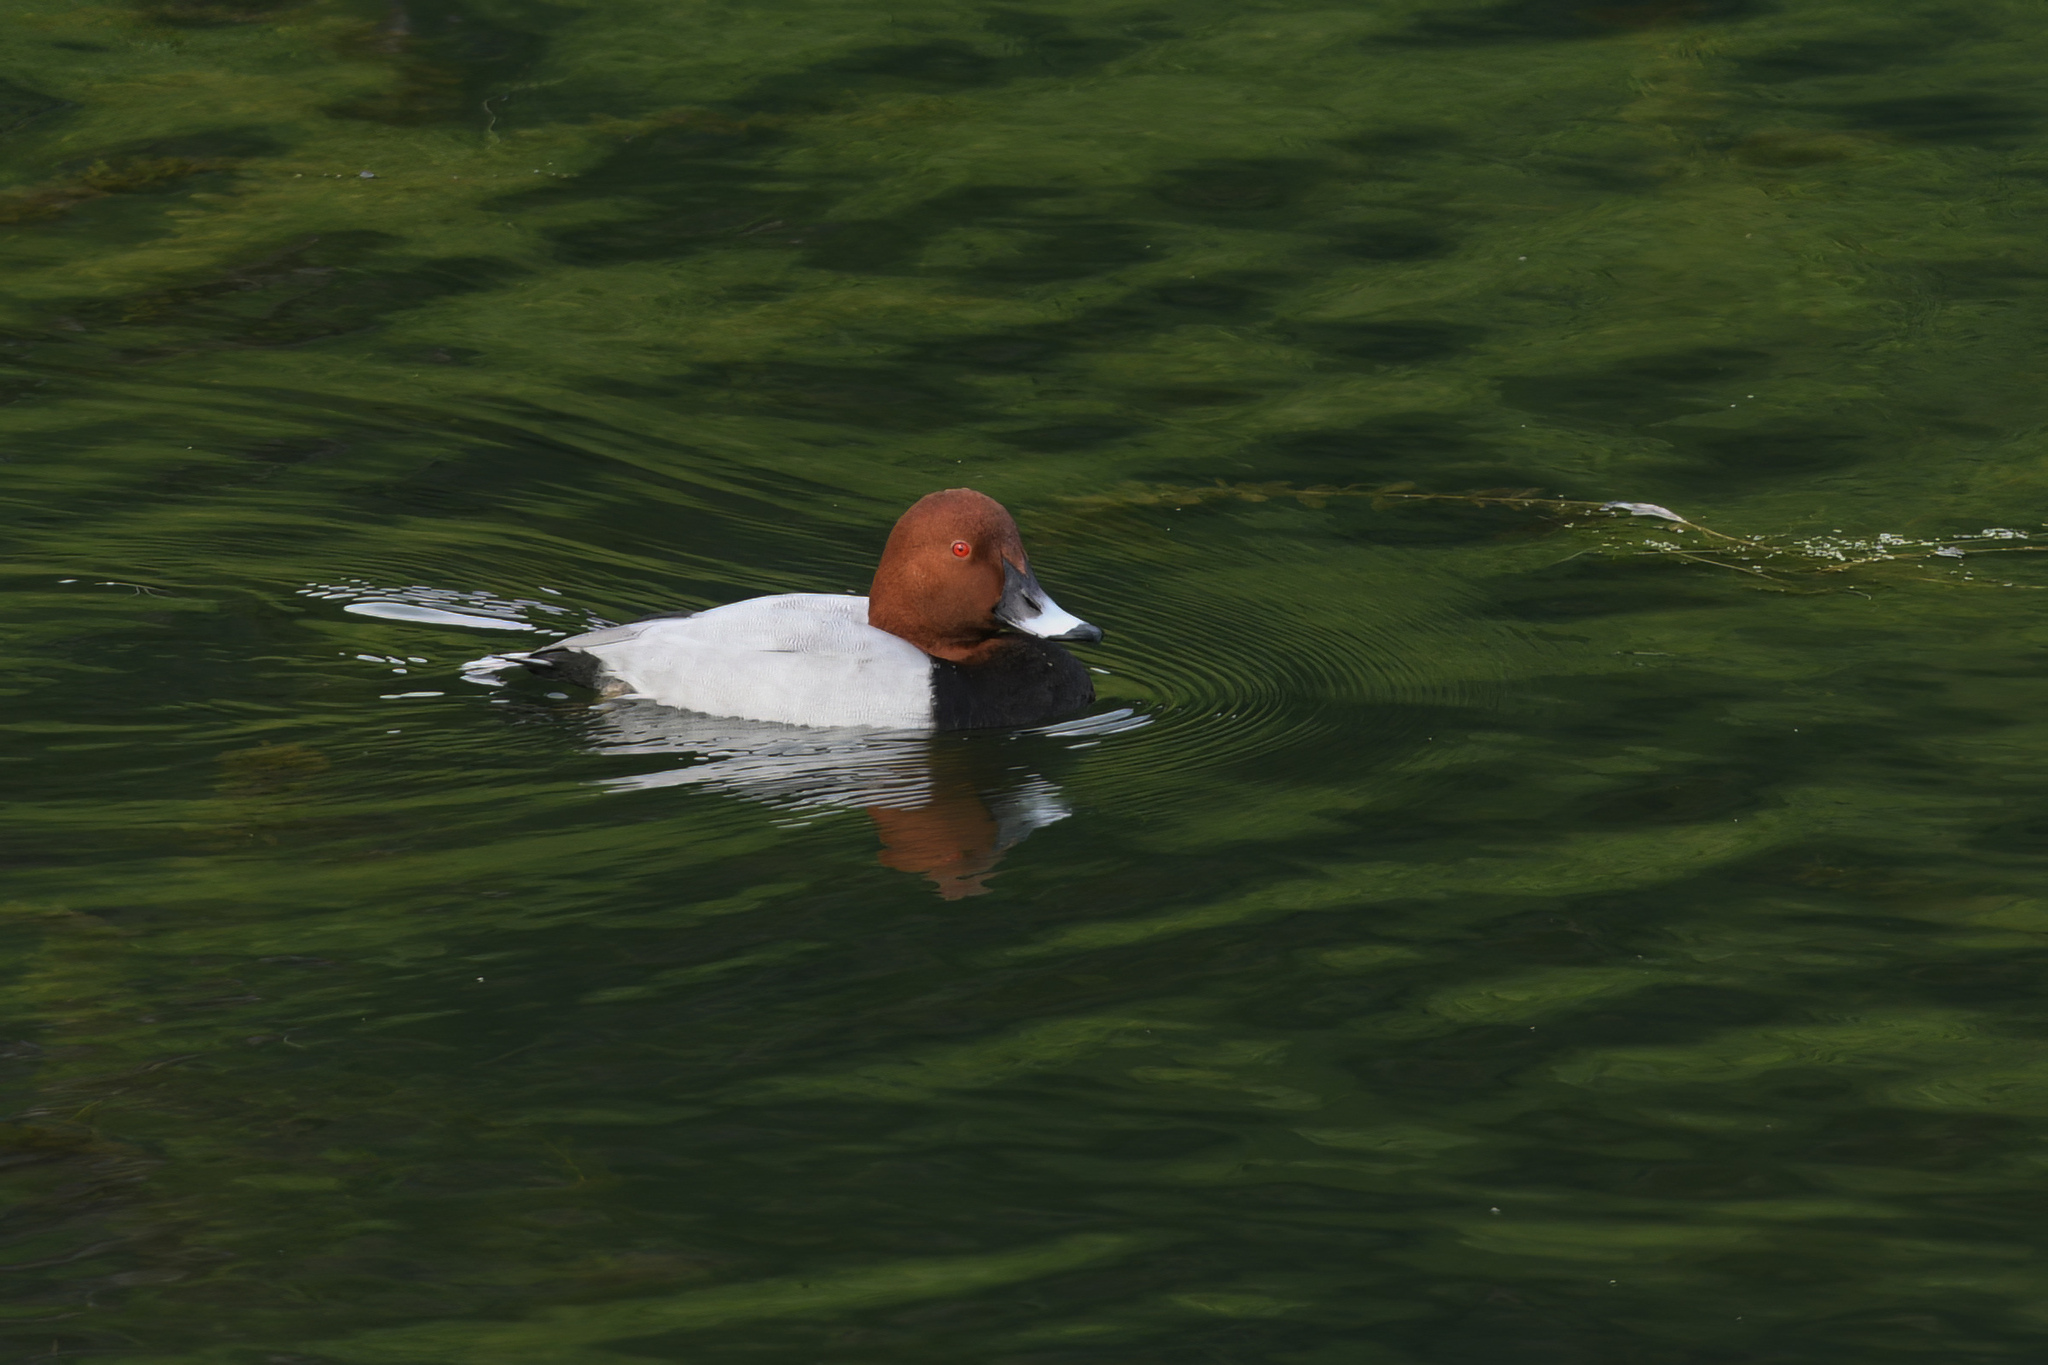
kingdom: Animalia
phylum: Chordata
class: Aves
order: Anseriformes
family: Anatidae
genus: Aythya
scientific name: Aythya ferina
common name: Common pochard
